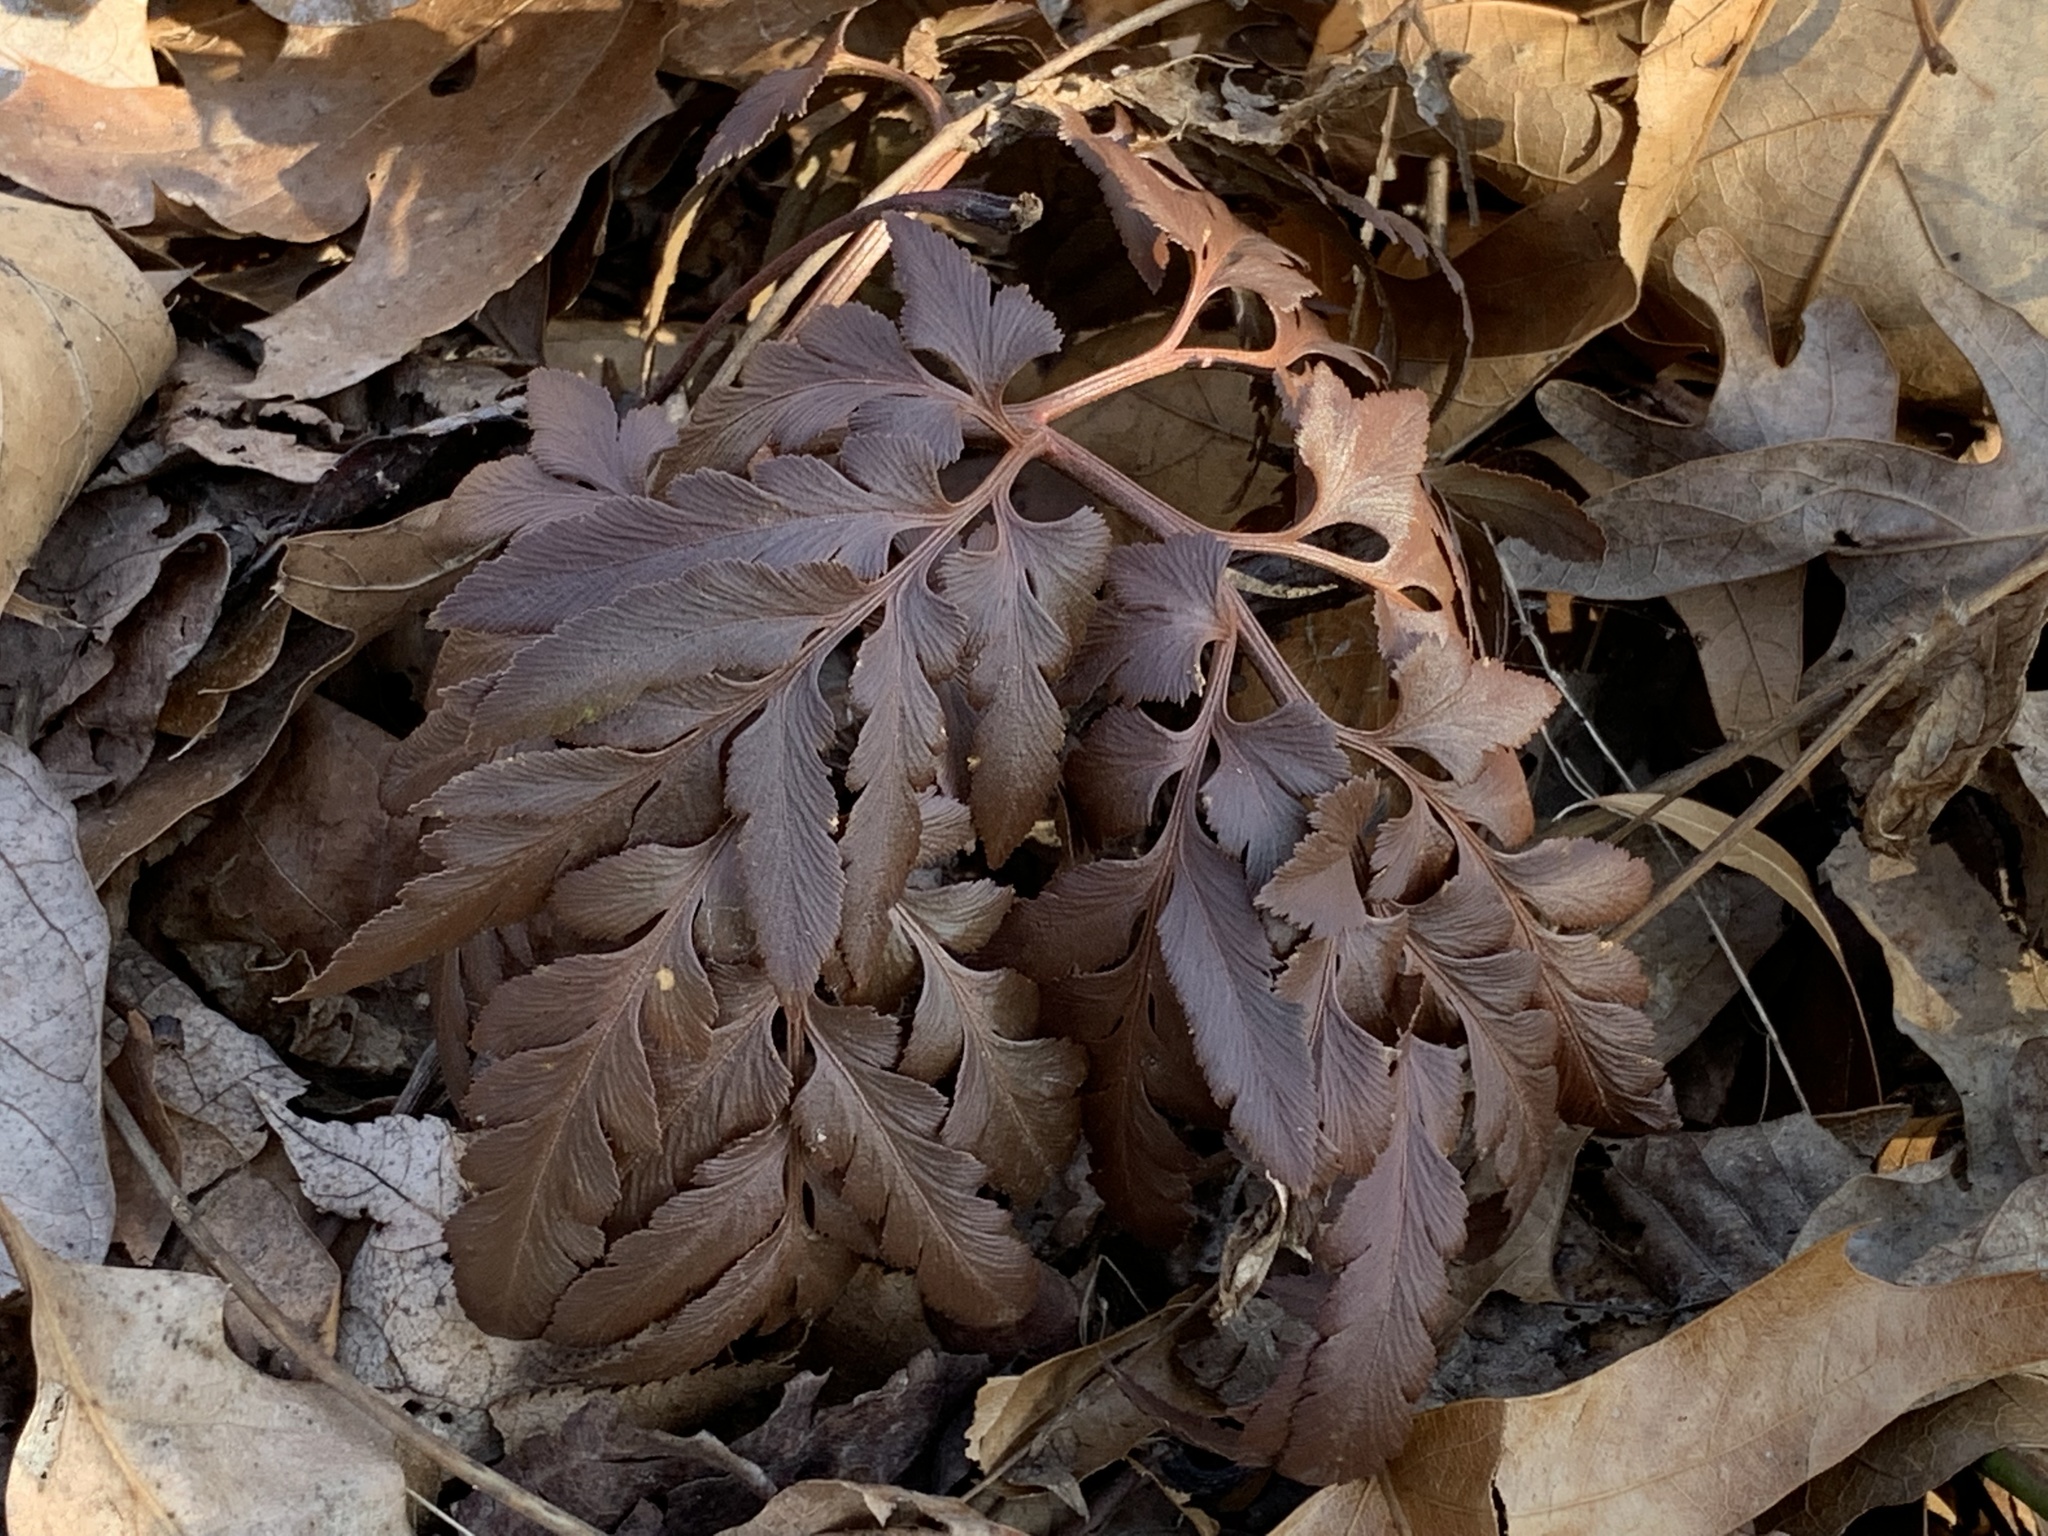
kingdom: Plantae
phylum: Tracheophyta
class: Polypodiopsida
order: Ophioglossales
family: Ophioglossaceae
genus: Sceptridium
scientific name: Sceptridium dissectum
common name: Cut-leaved grapefern
